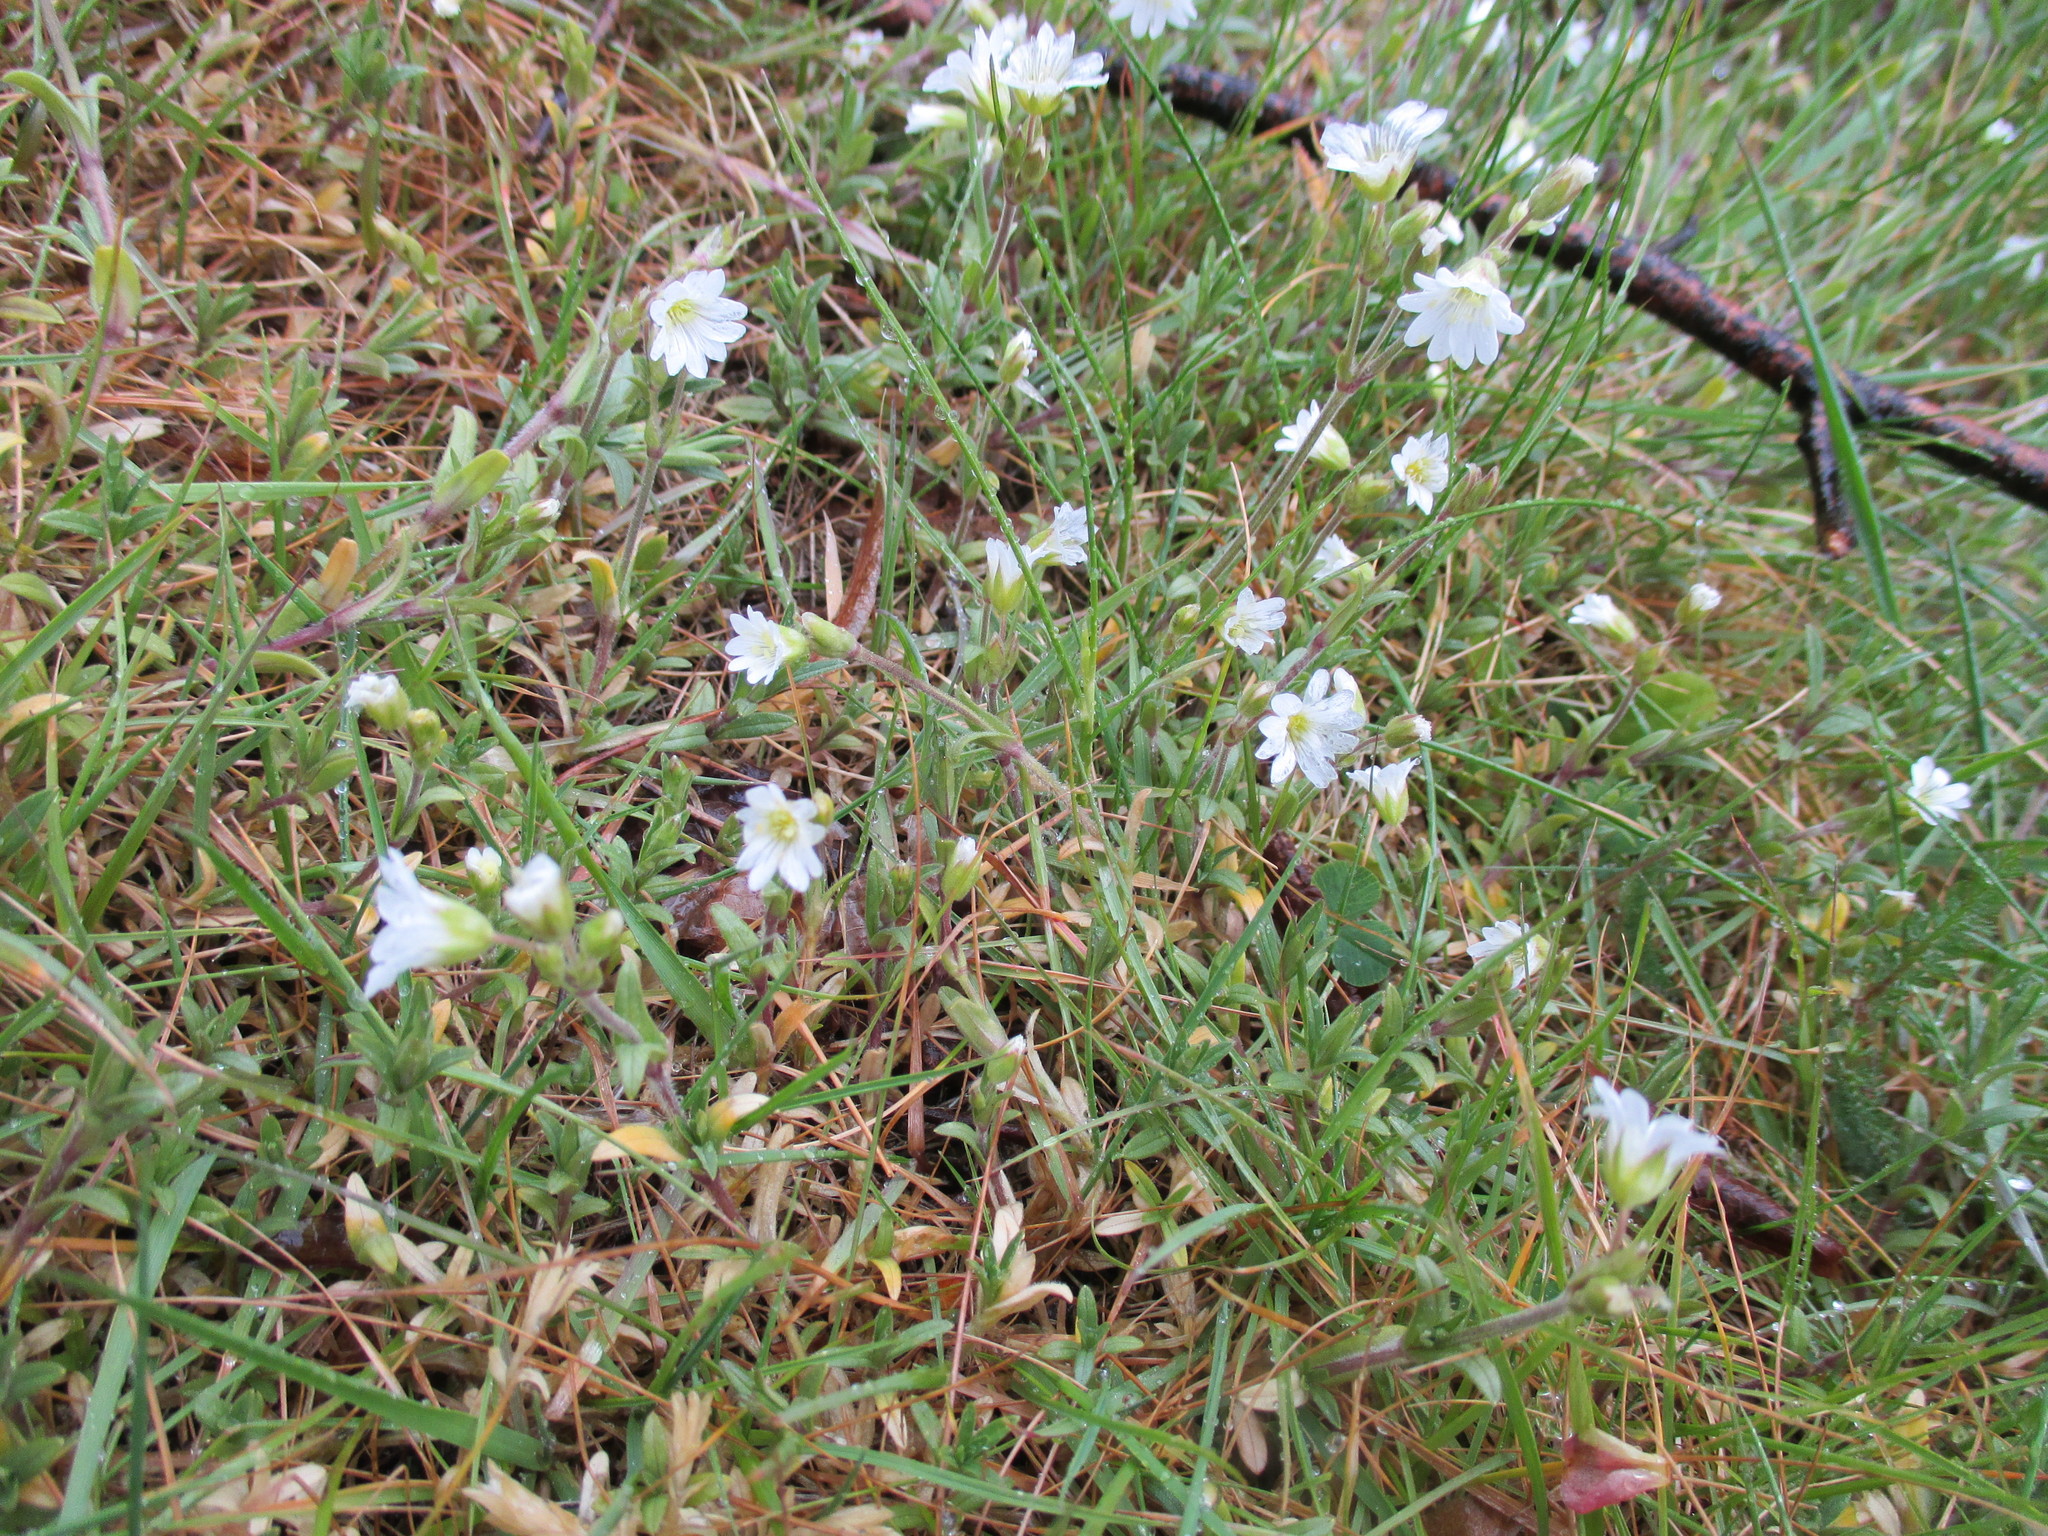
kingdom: Plantae
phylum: Tracheophyta
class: Magnoliopsida
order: Caryophyllales
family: Caryophyllaceae
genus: Cerastium
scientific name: Cerastium tomentosum
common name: Snow-in-summer
